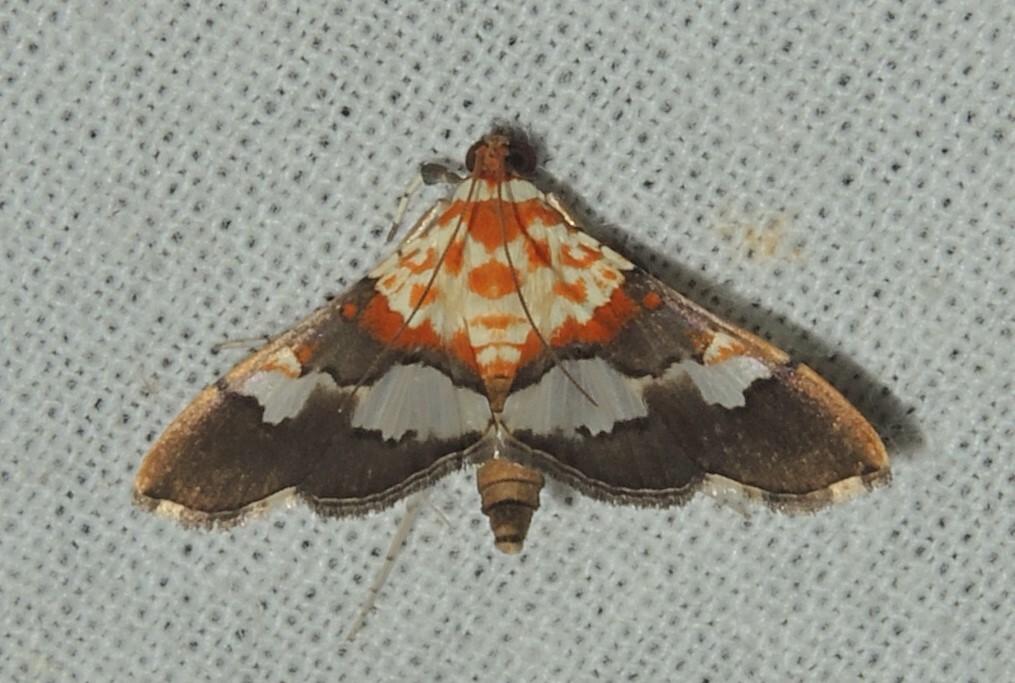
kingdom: Animalia
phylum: Arthropoda
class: Insecta
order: Lepidoptera
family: Crambidae
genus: Aetholix
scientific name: Aetholix flavibasalis
